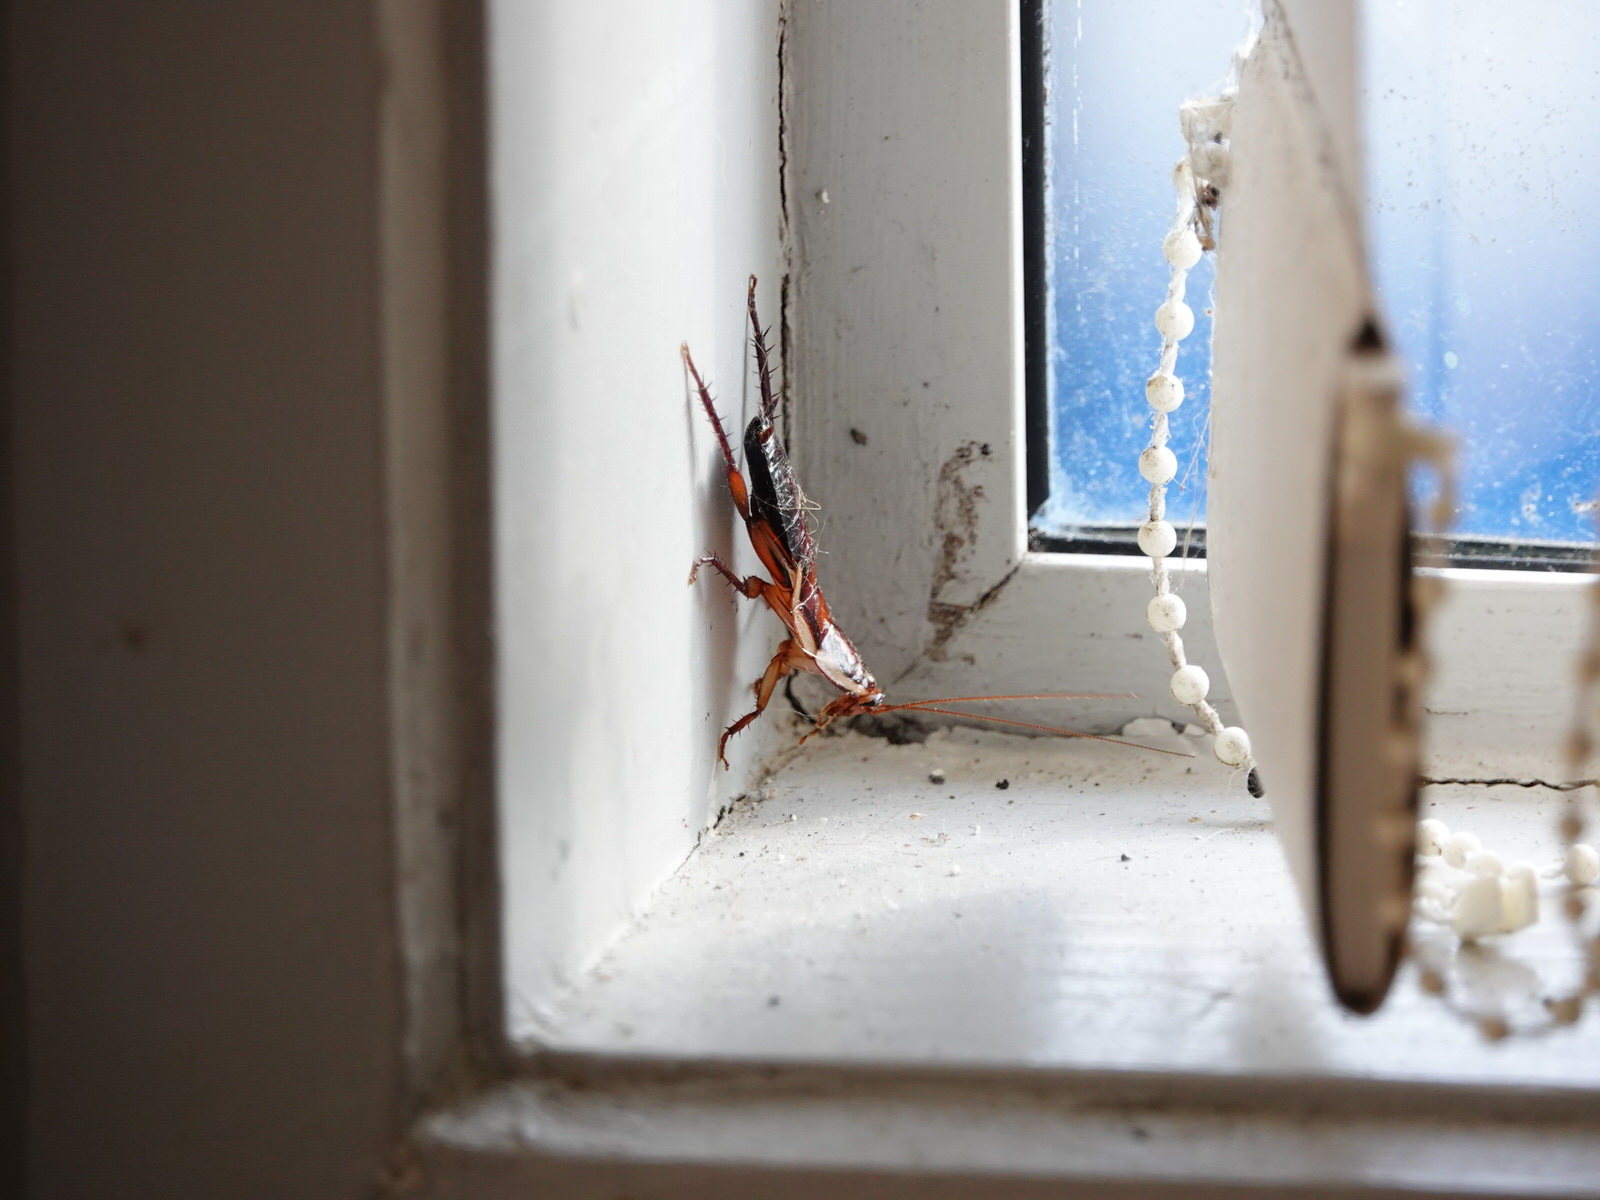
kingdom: Animalia
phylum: Arthropoda
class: Insecta
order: Blattodea
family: Blattidae
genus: Drymaplaneta
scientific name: Drymaplaneta semivitta
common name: Gisborne cockroach
